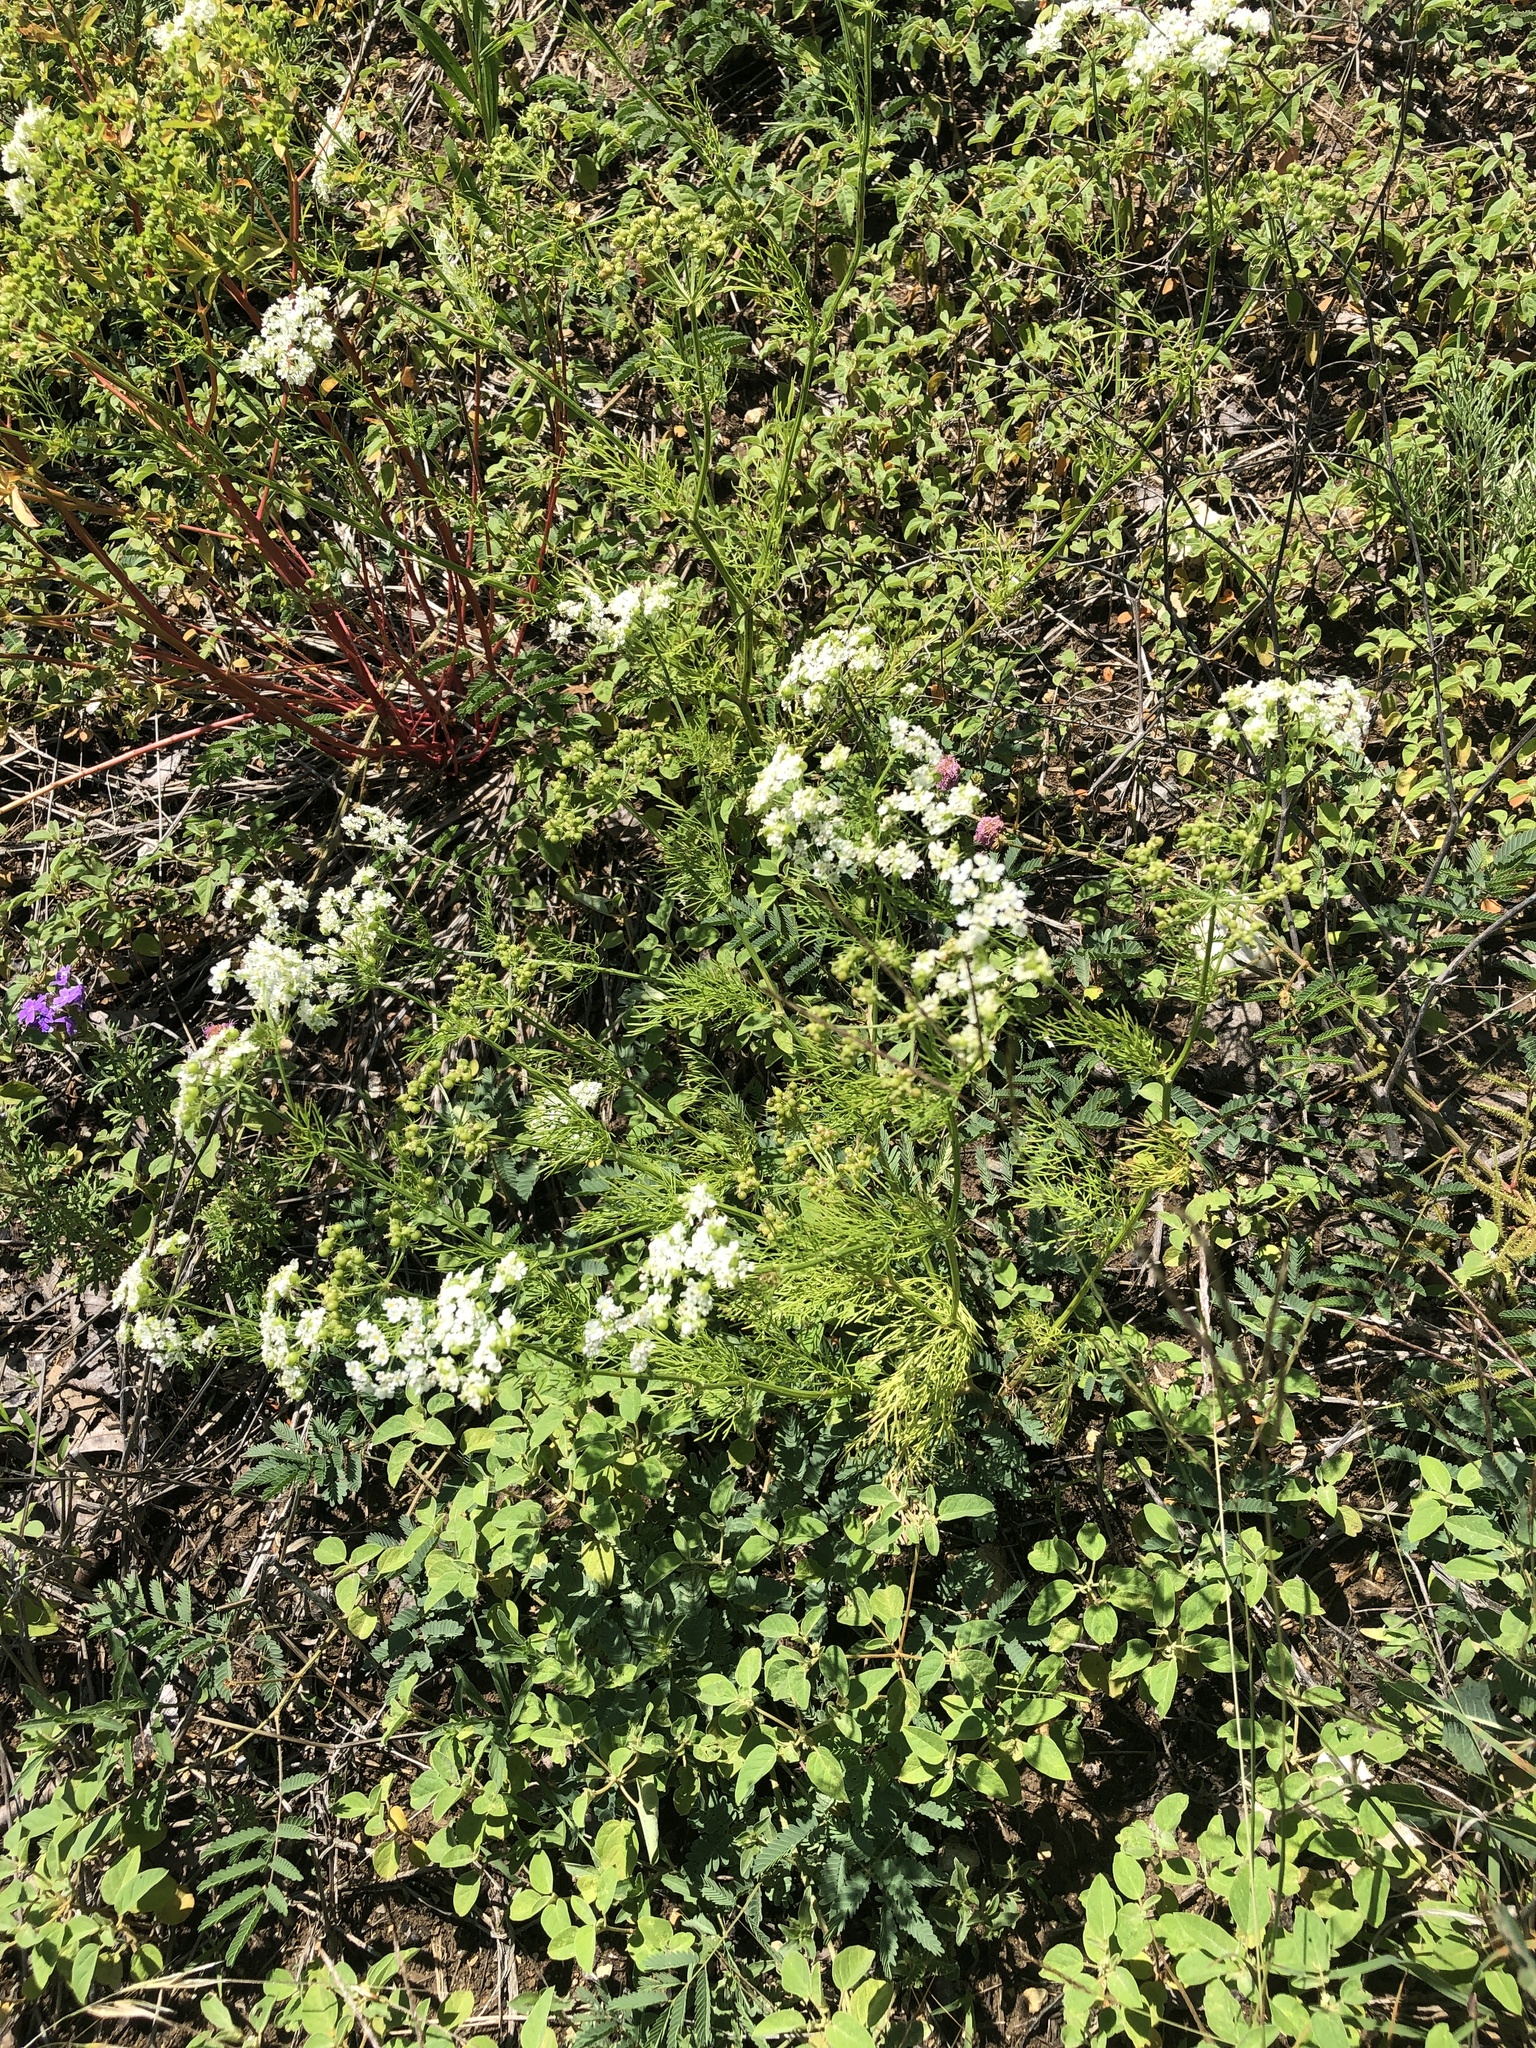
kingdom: Plantae
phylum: Tracheophyta
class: Magnoliopsida
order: Apiales
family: Apiaceae
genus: Atrema
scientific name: Atrema americanum
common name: Prairie-bishop
